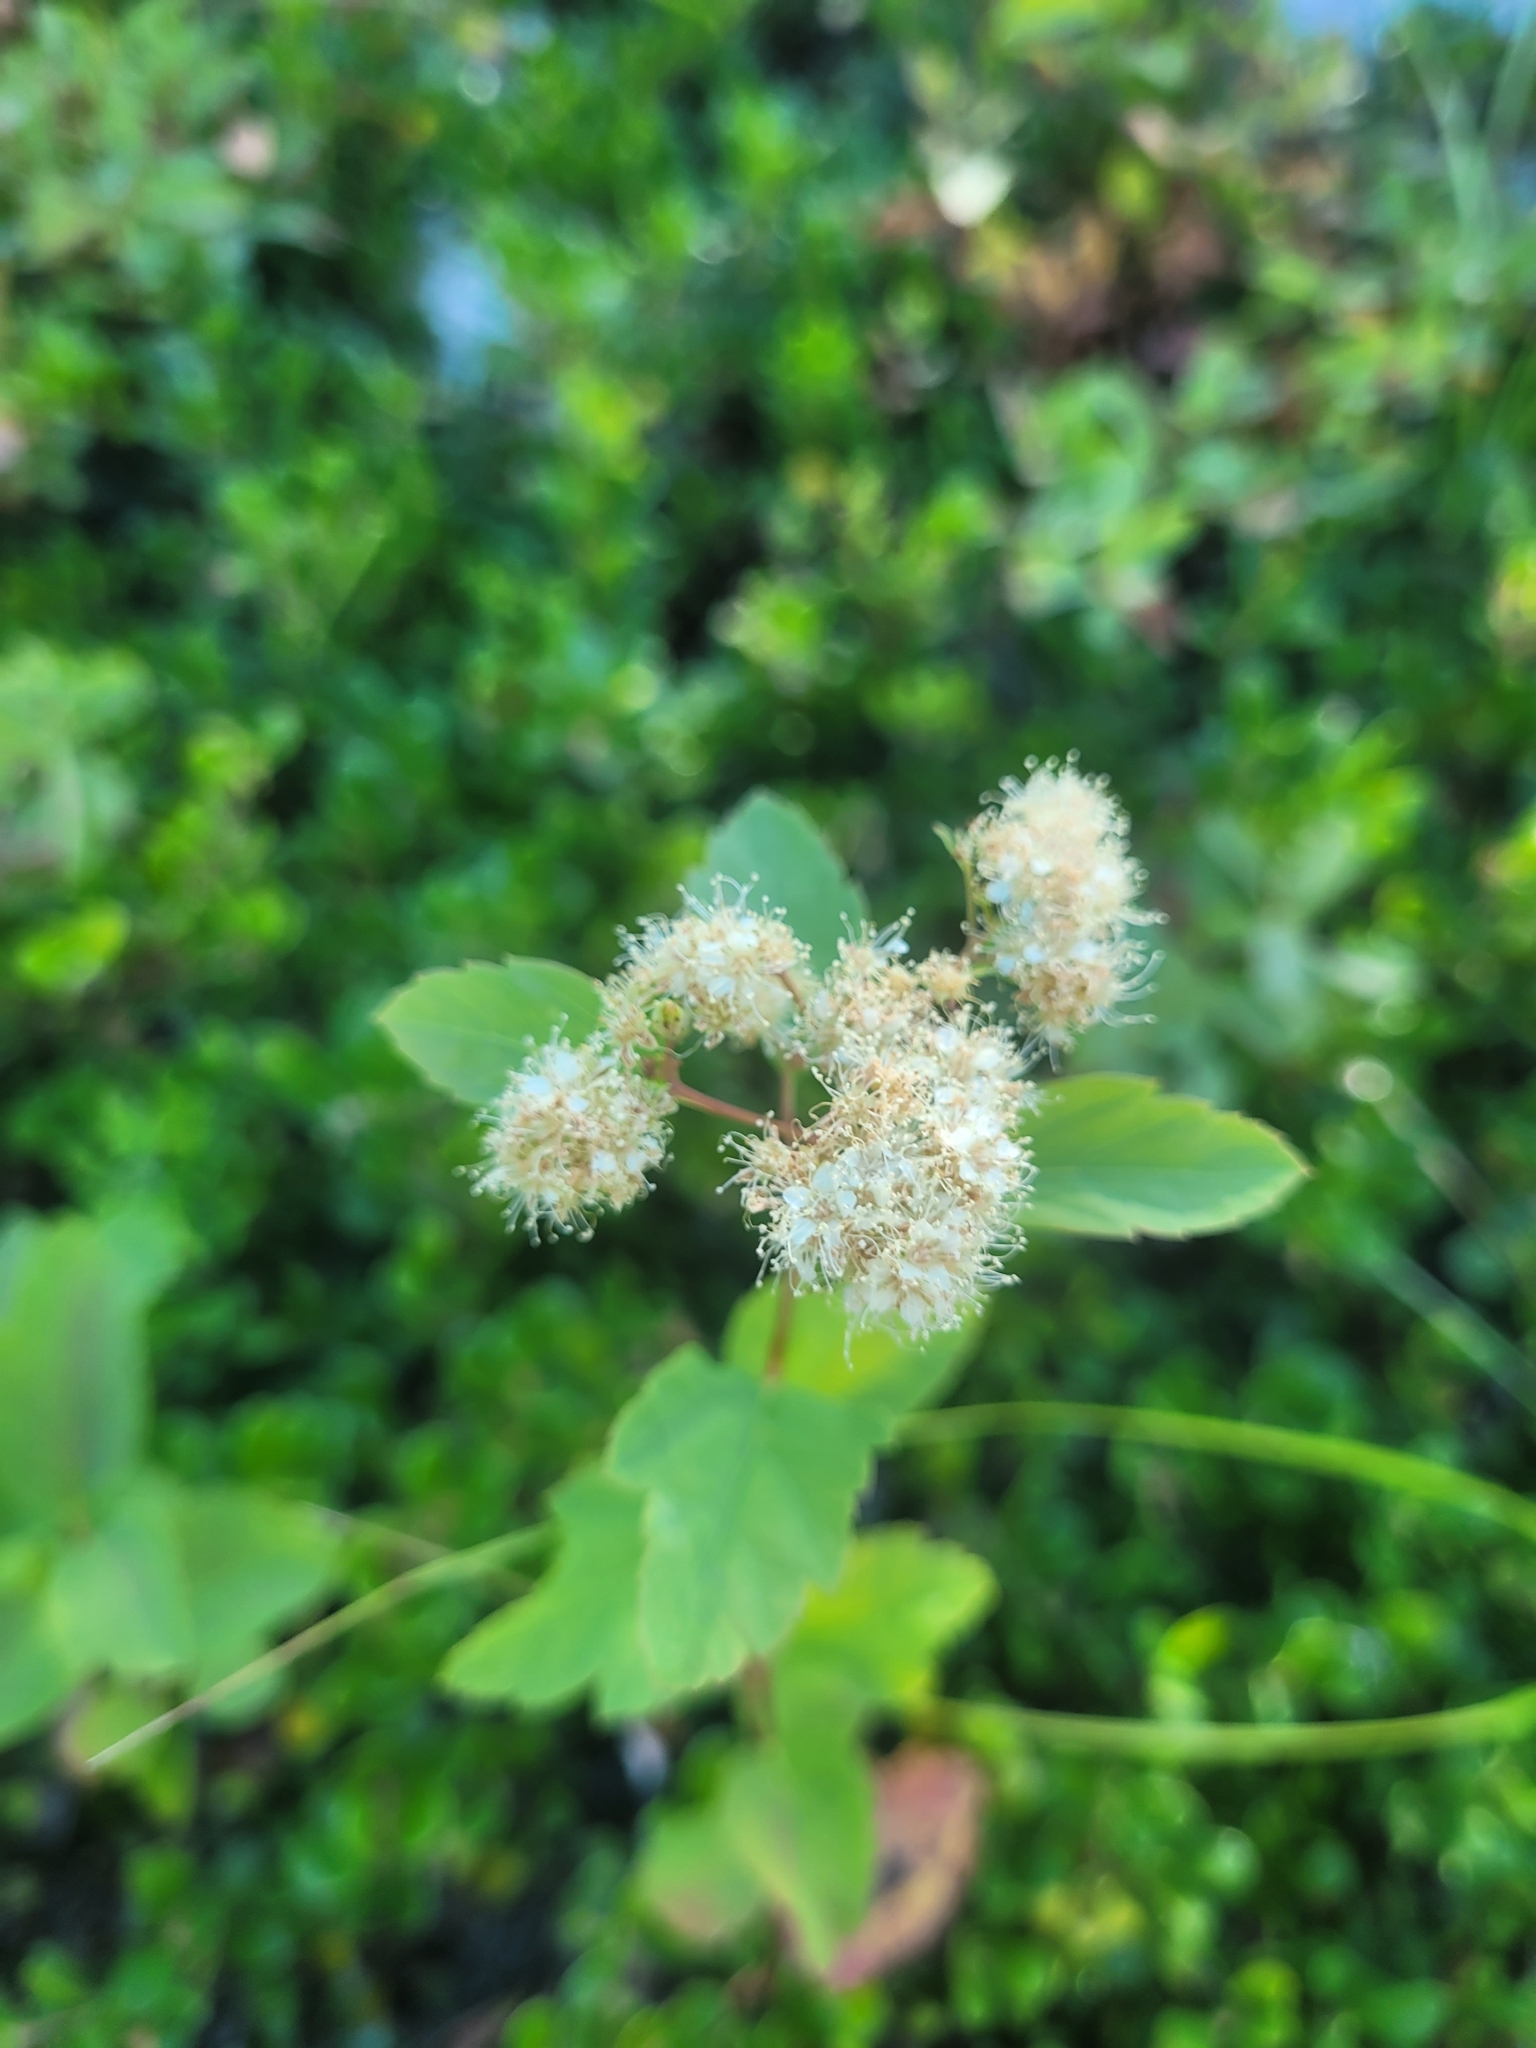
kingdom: Plantae
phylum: Tracheophyta
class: Magnoliopsida
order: Rosales
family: Rosaceae
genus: Spiraea
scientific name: Spiraea lucida
